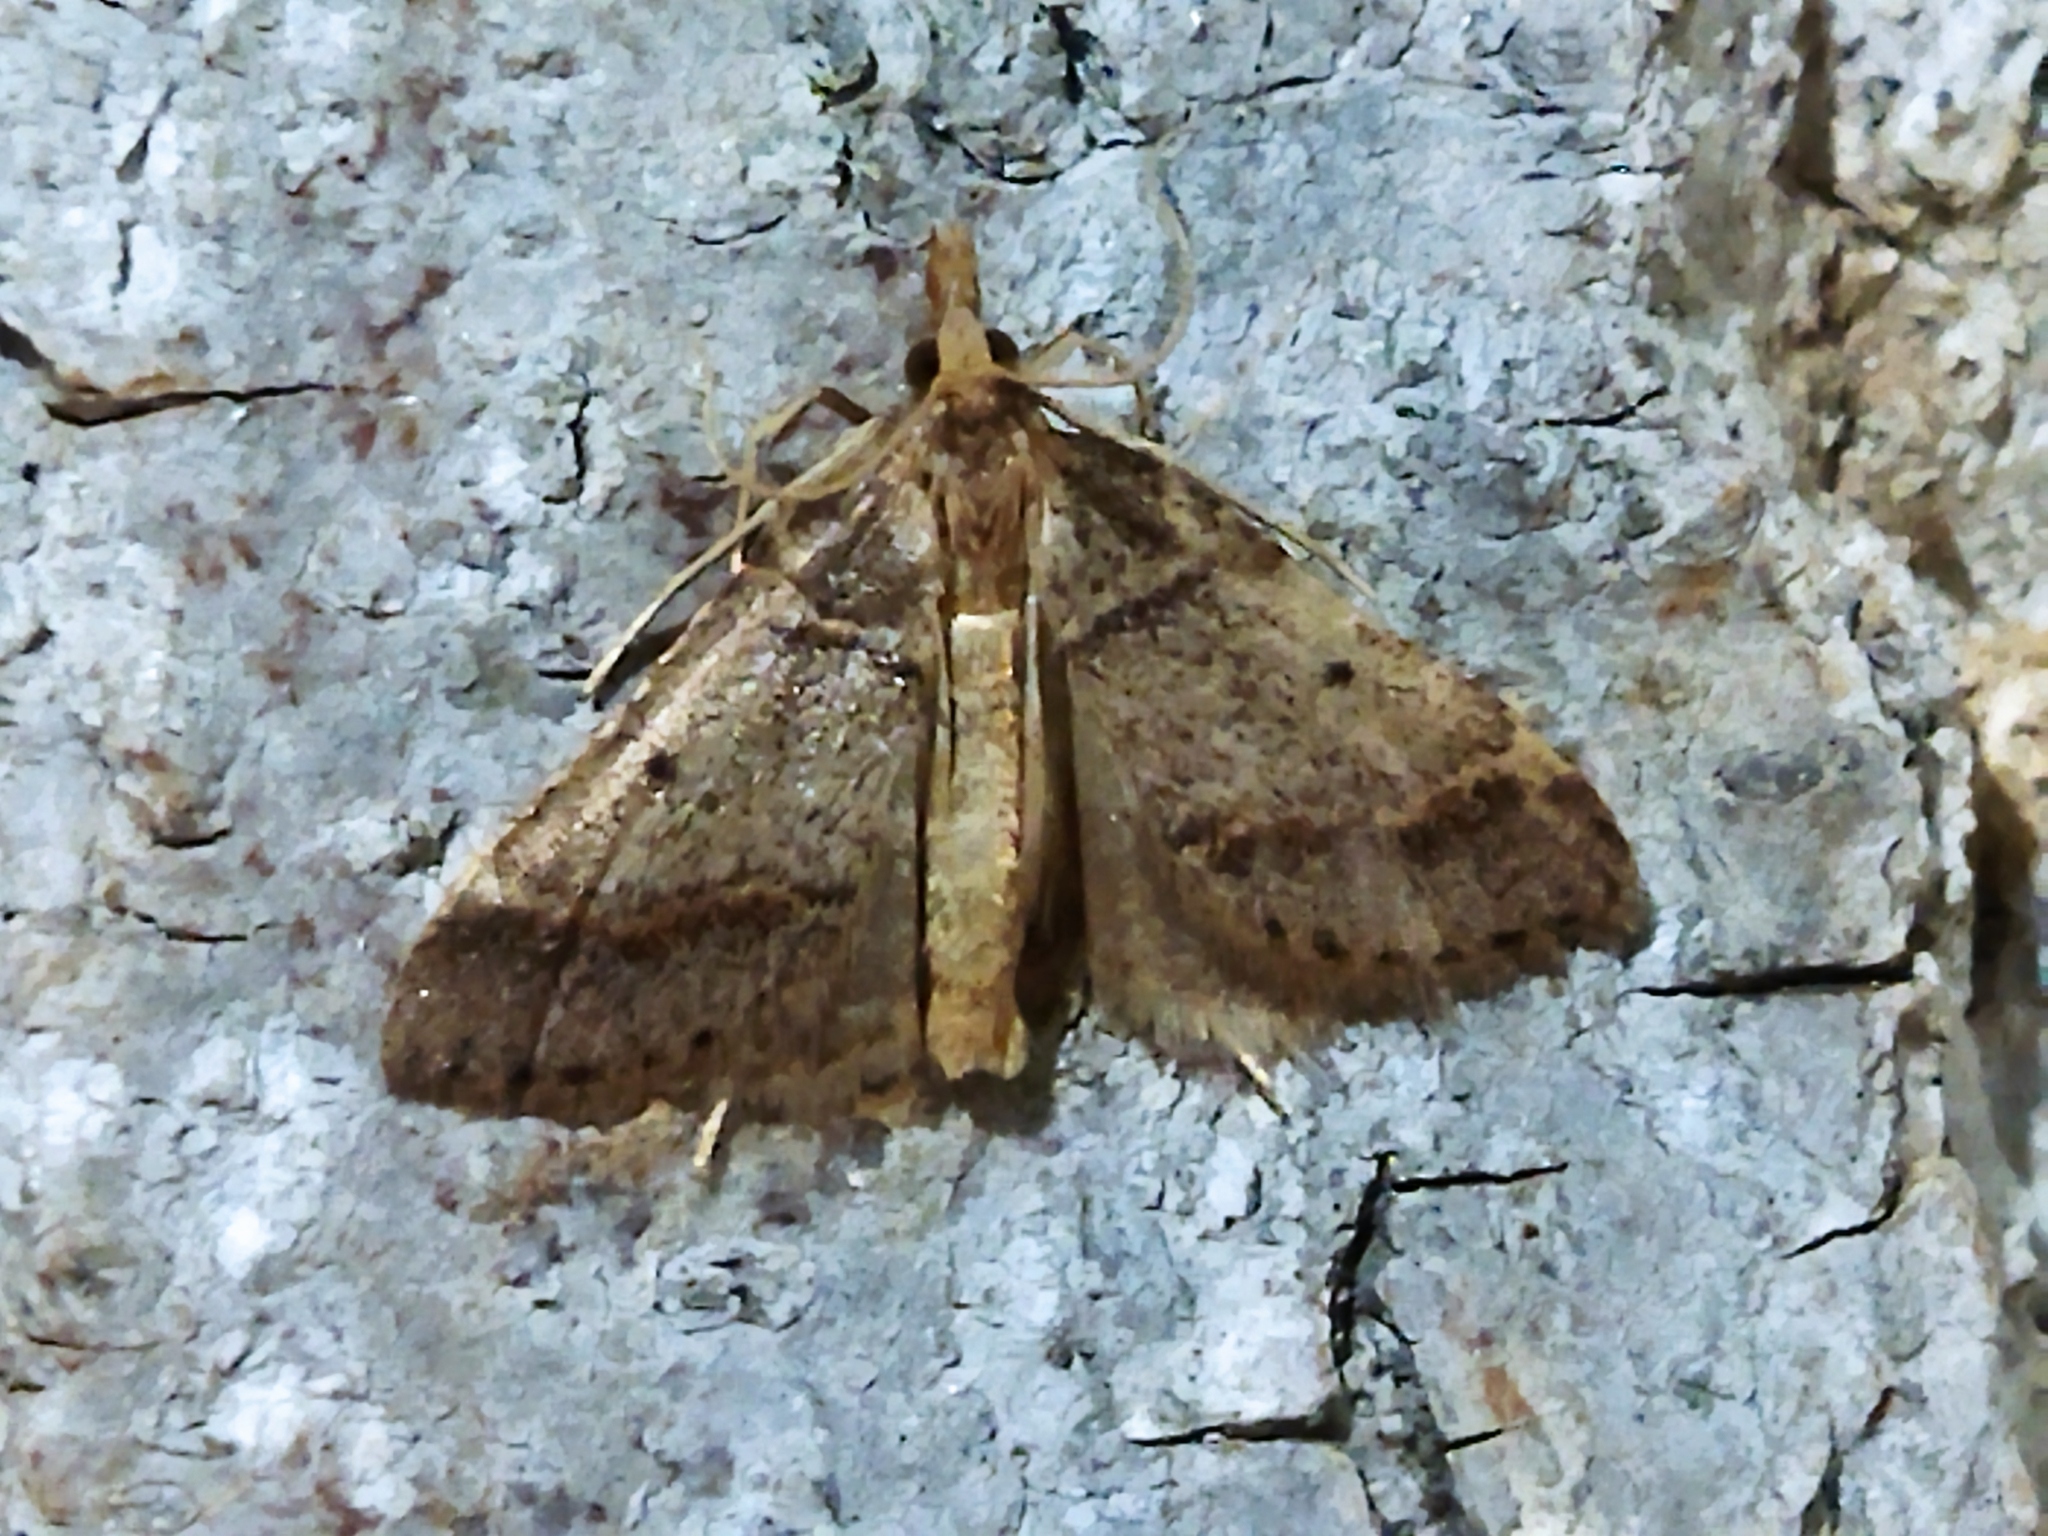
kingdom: Animalia
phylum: Arthropoda
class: Insecta
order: Lepidoptera
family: Pyralidae
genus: Stemmatophora
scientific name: Stemmatophora brunnealis
